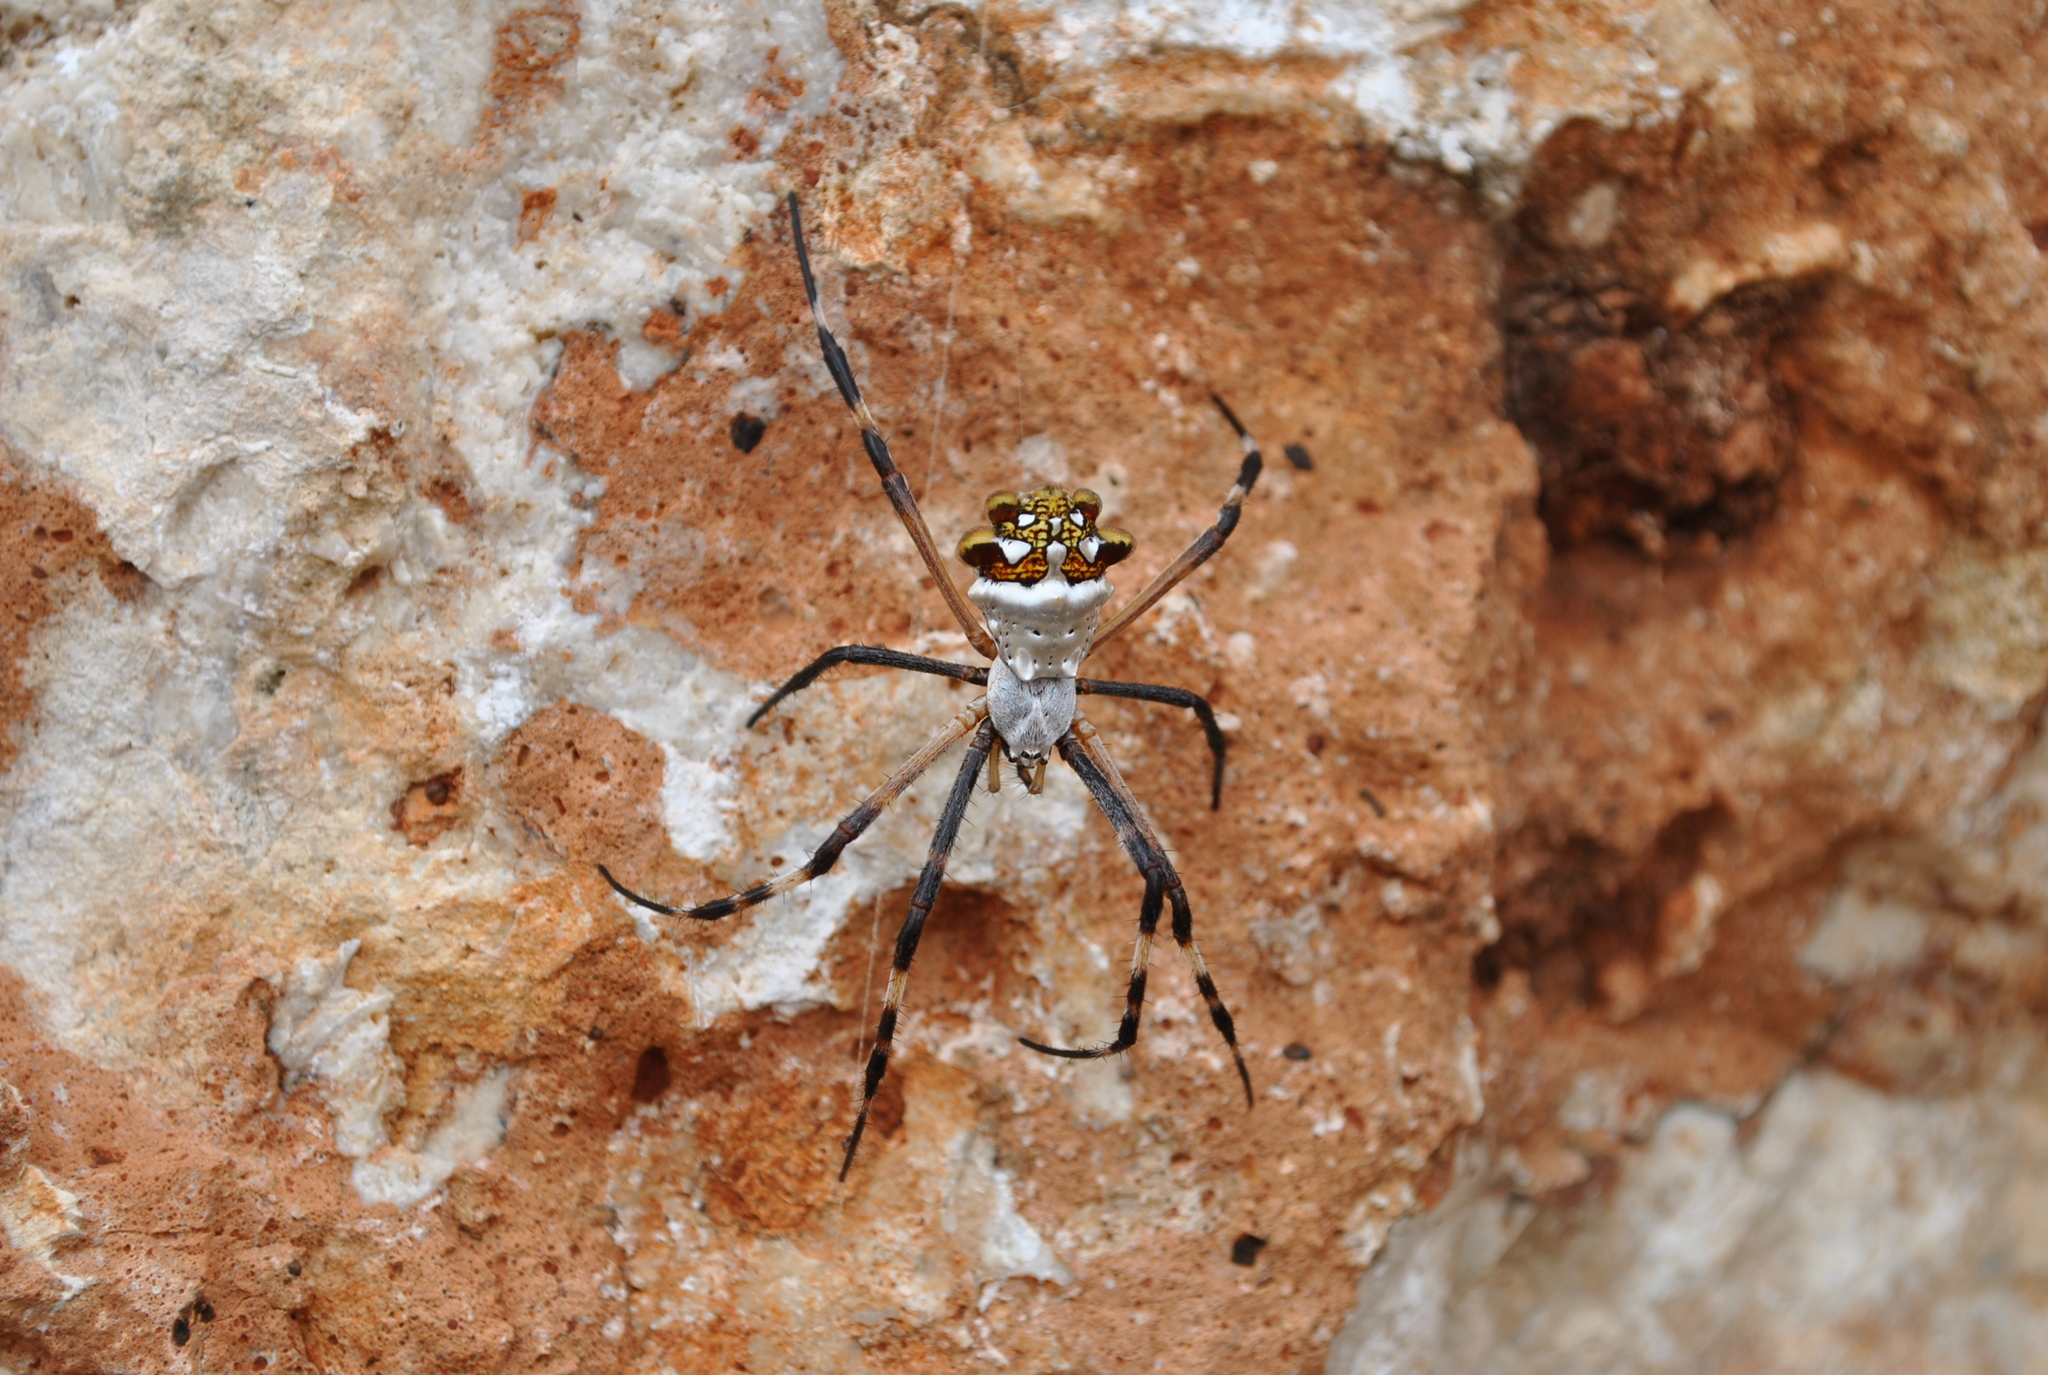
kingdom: Animalia
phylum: Arthropoda
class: Arachnida
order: Araneae
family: Araneidae
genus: Argiope
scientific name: Argiope argentata
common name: Orb weavers
